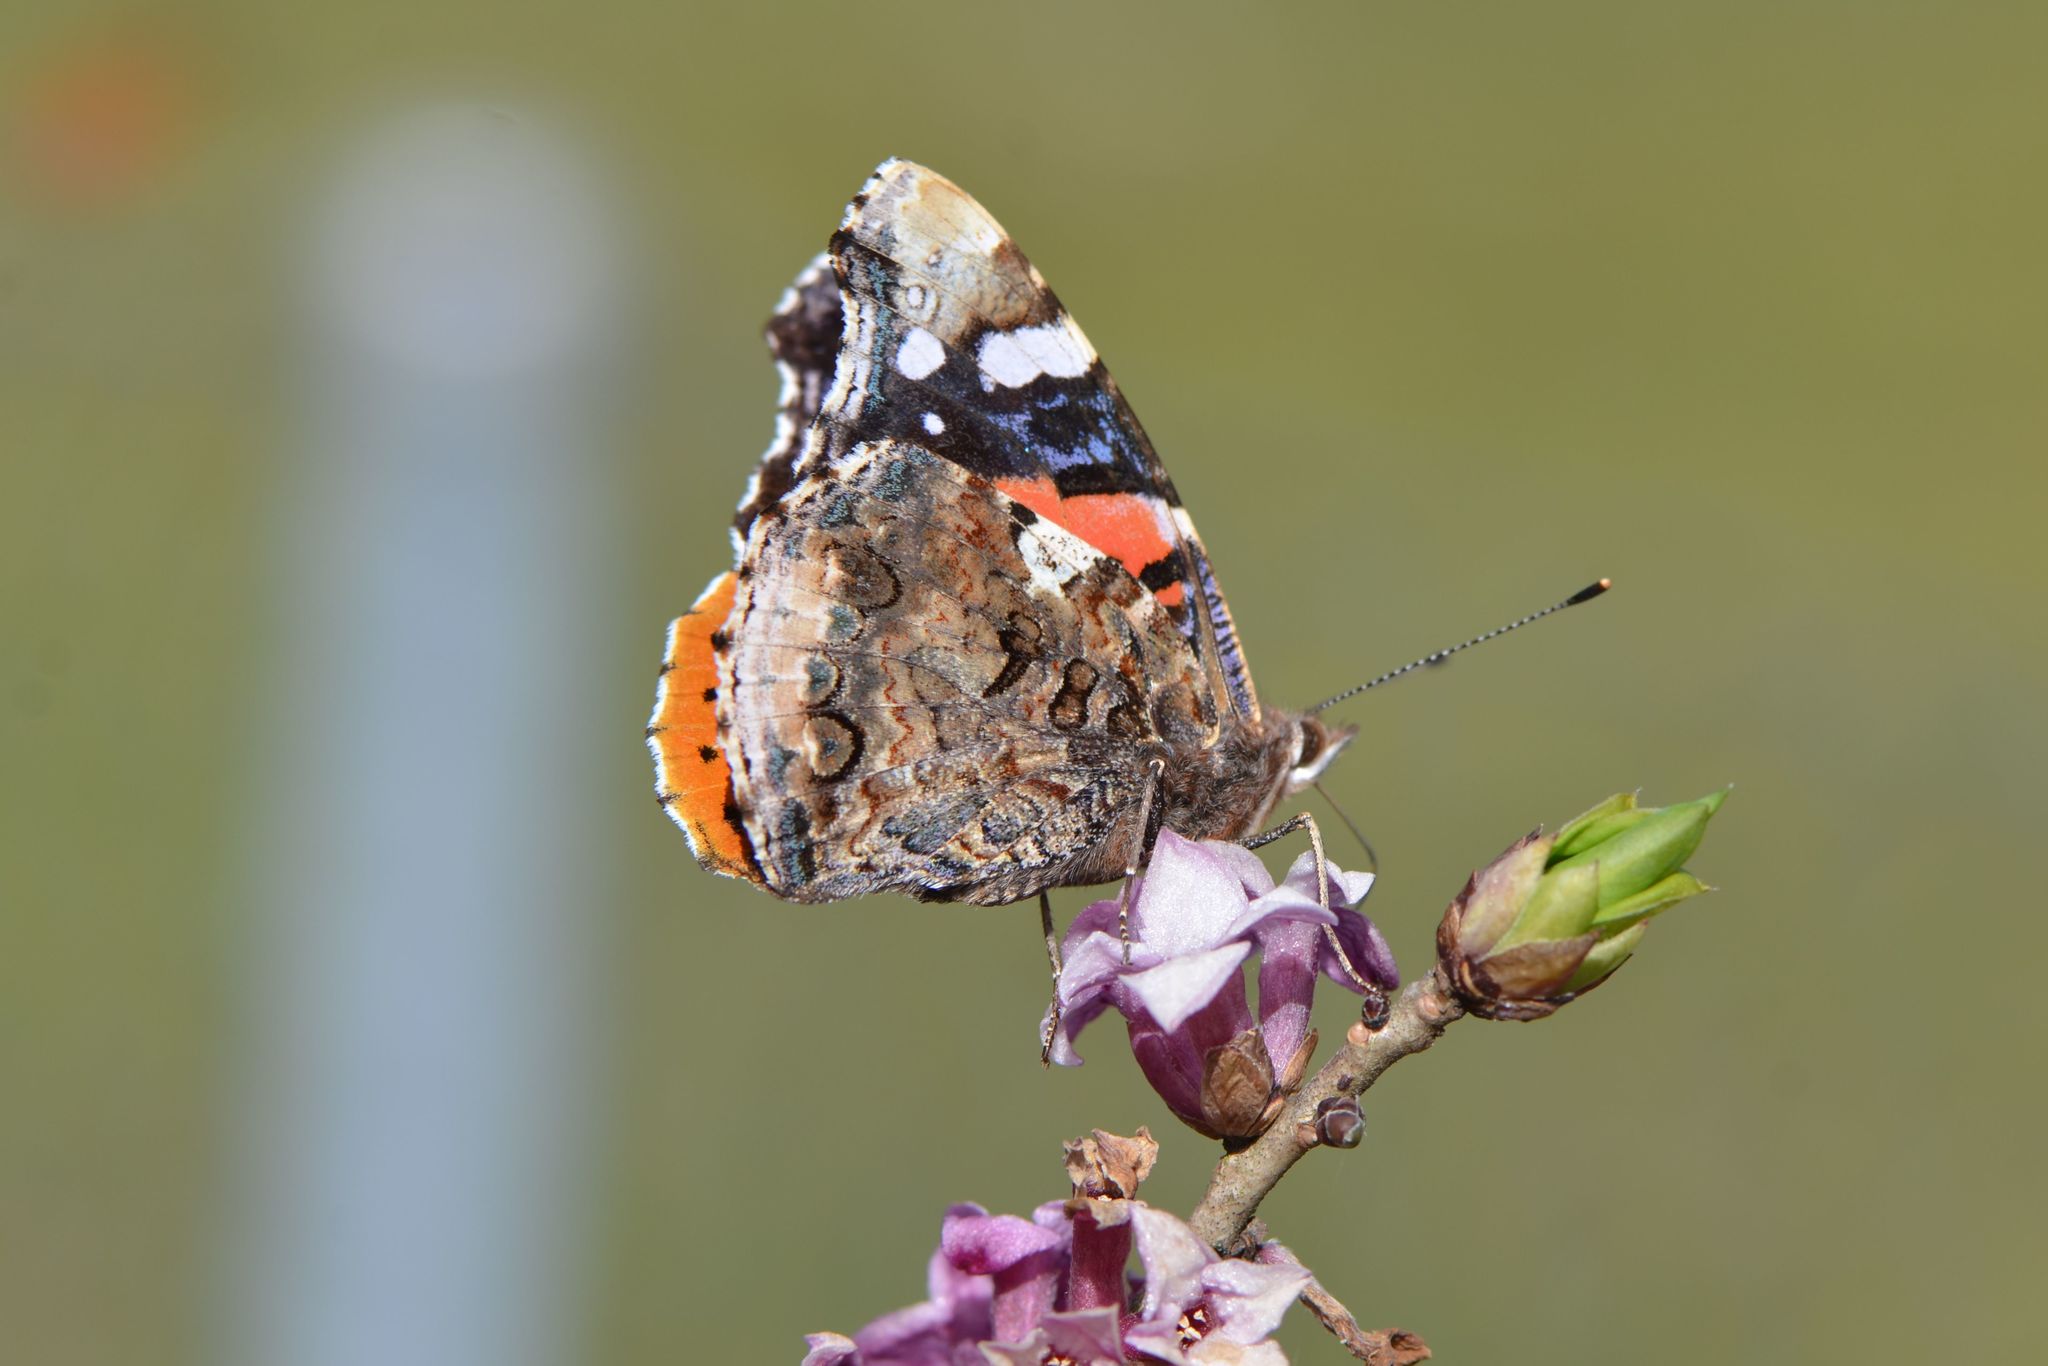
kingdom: Animalia
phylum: Arthropoda
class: Insecta
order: Lepidoptera
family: Nymphalidae
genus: Vanessa
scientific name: Vanessa atalanta
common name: Red admiral
